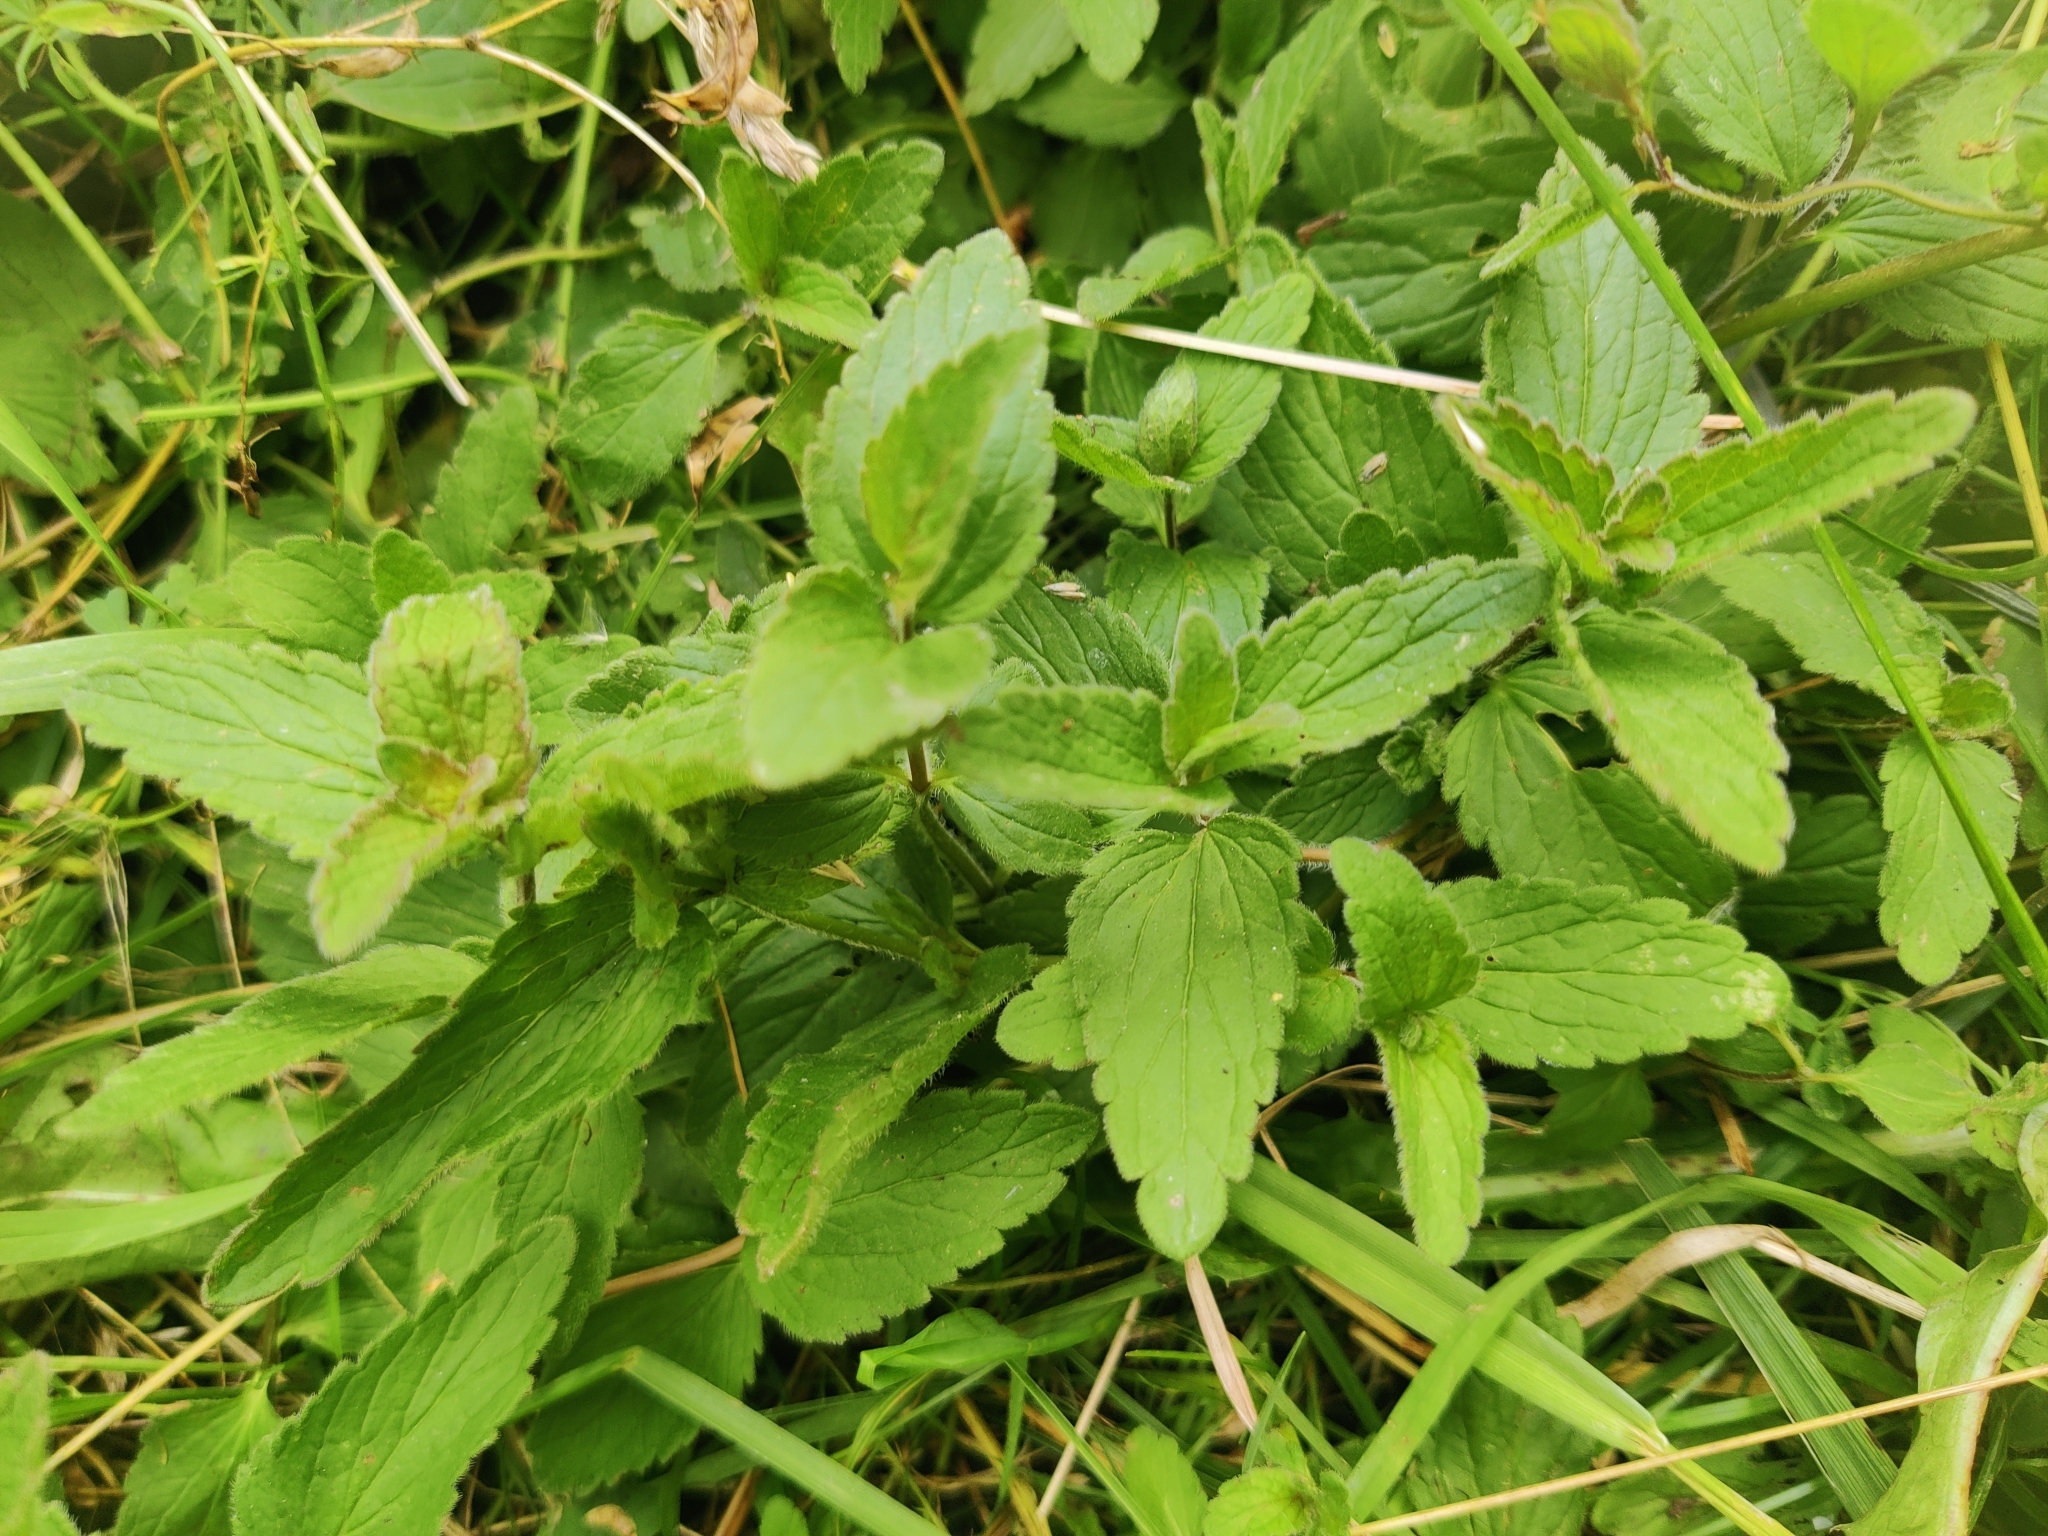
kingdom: Plantae
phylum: Tracheophyta
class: Magnoliopsida
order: Lamiales
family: Plantaginaceae
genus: Veronica
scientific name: Veronica chamaedrys
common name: Germander speedwell
